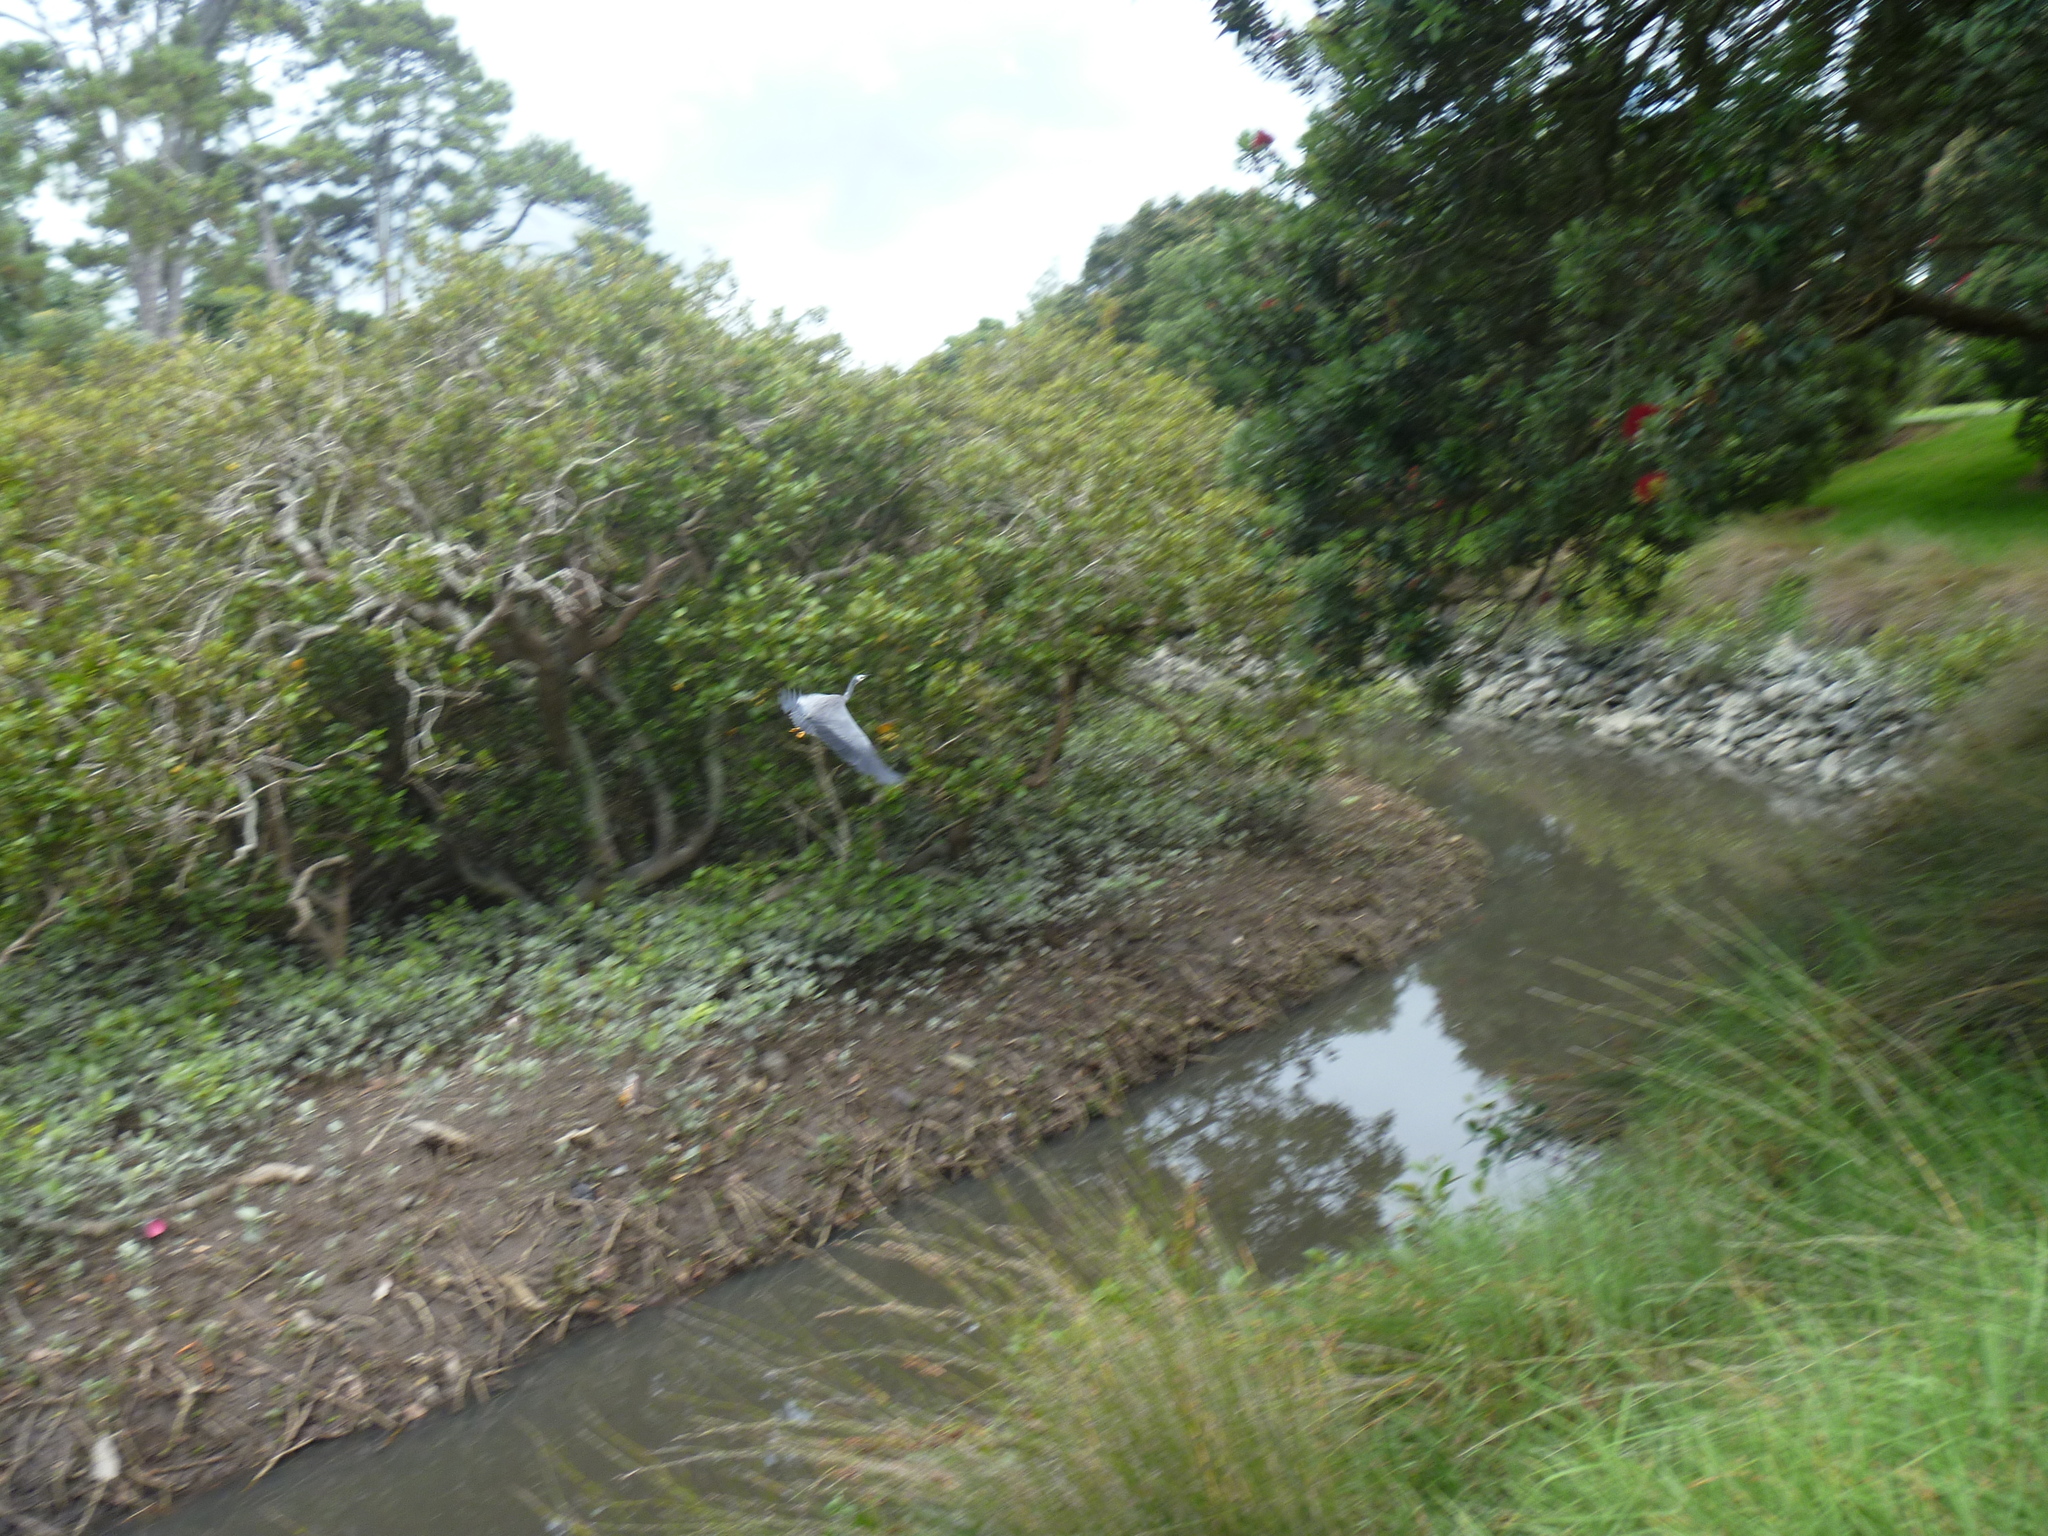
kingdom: Animalia
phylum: Chordata
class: Aves
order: Pelecaniformes
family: Ardeidae
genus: Egretta
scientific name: Egretta novaehollandiae
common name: White-faced heron
